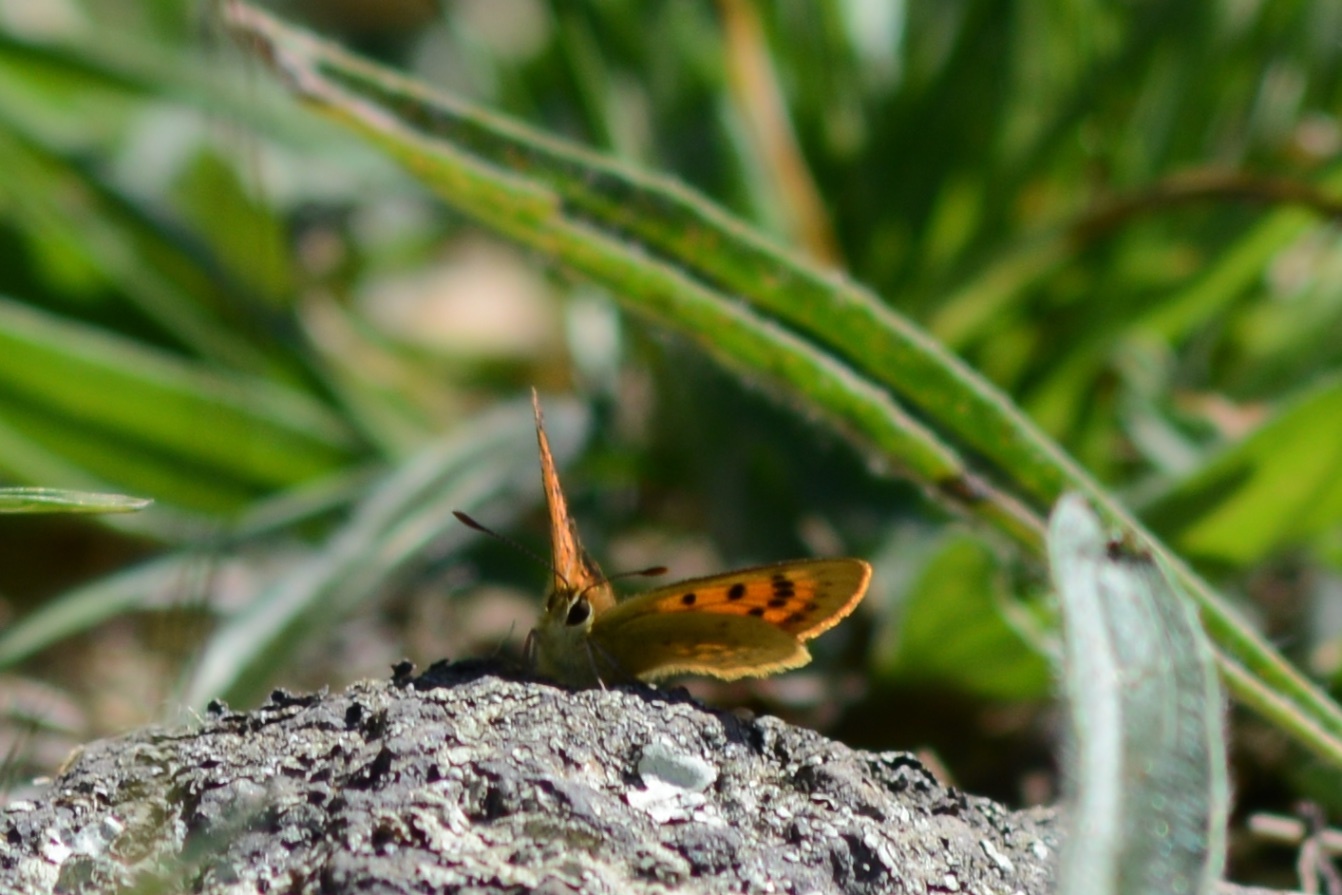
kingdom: Animalia
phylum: Arthropoda
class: Insecta
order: Lepidoptera
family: Lycaenidae
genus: Lycaena
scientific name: Lycaena
